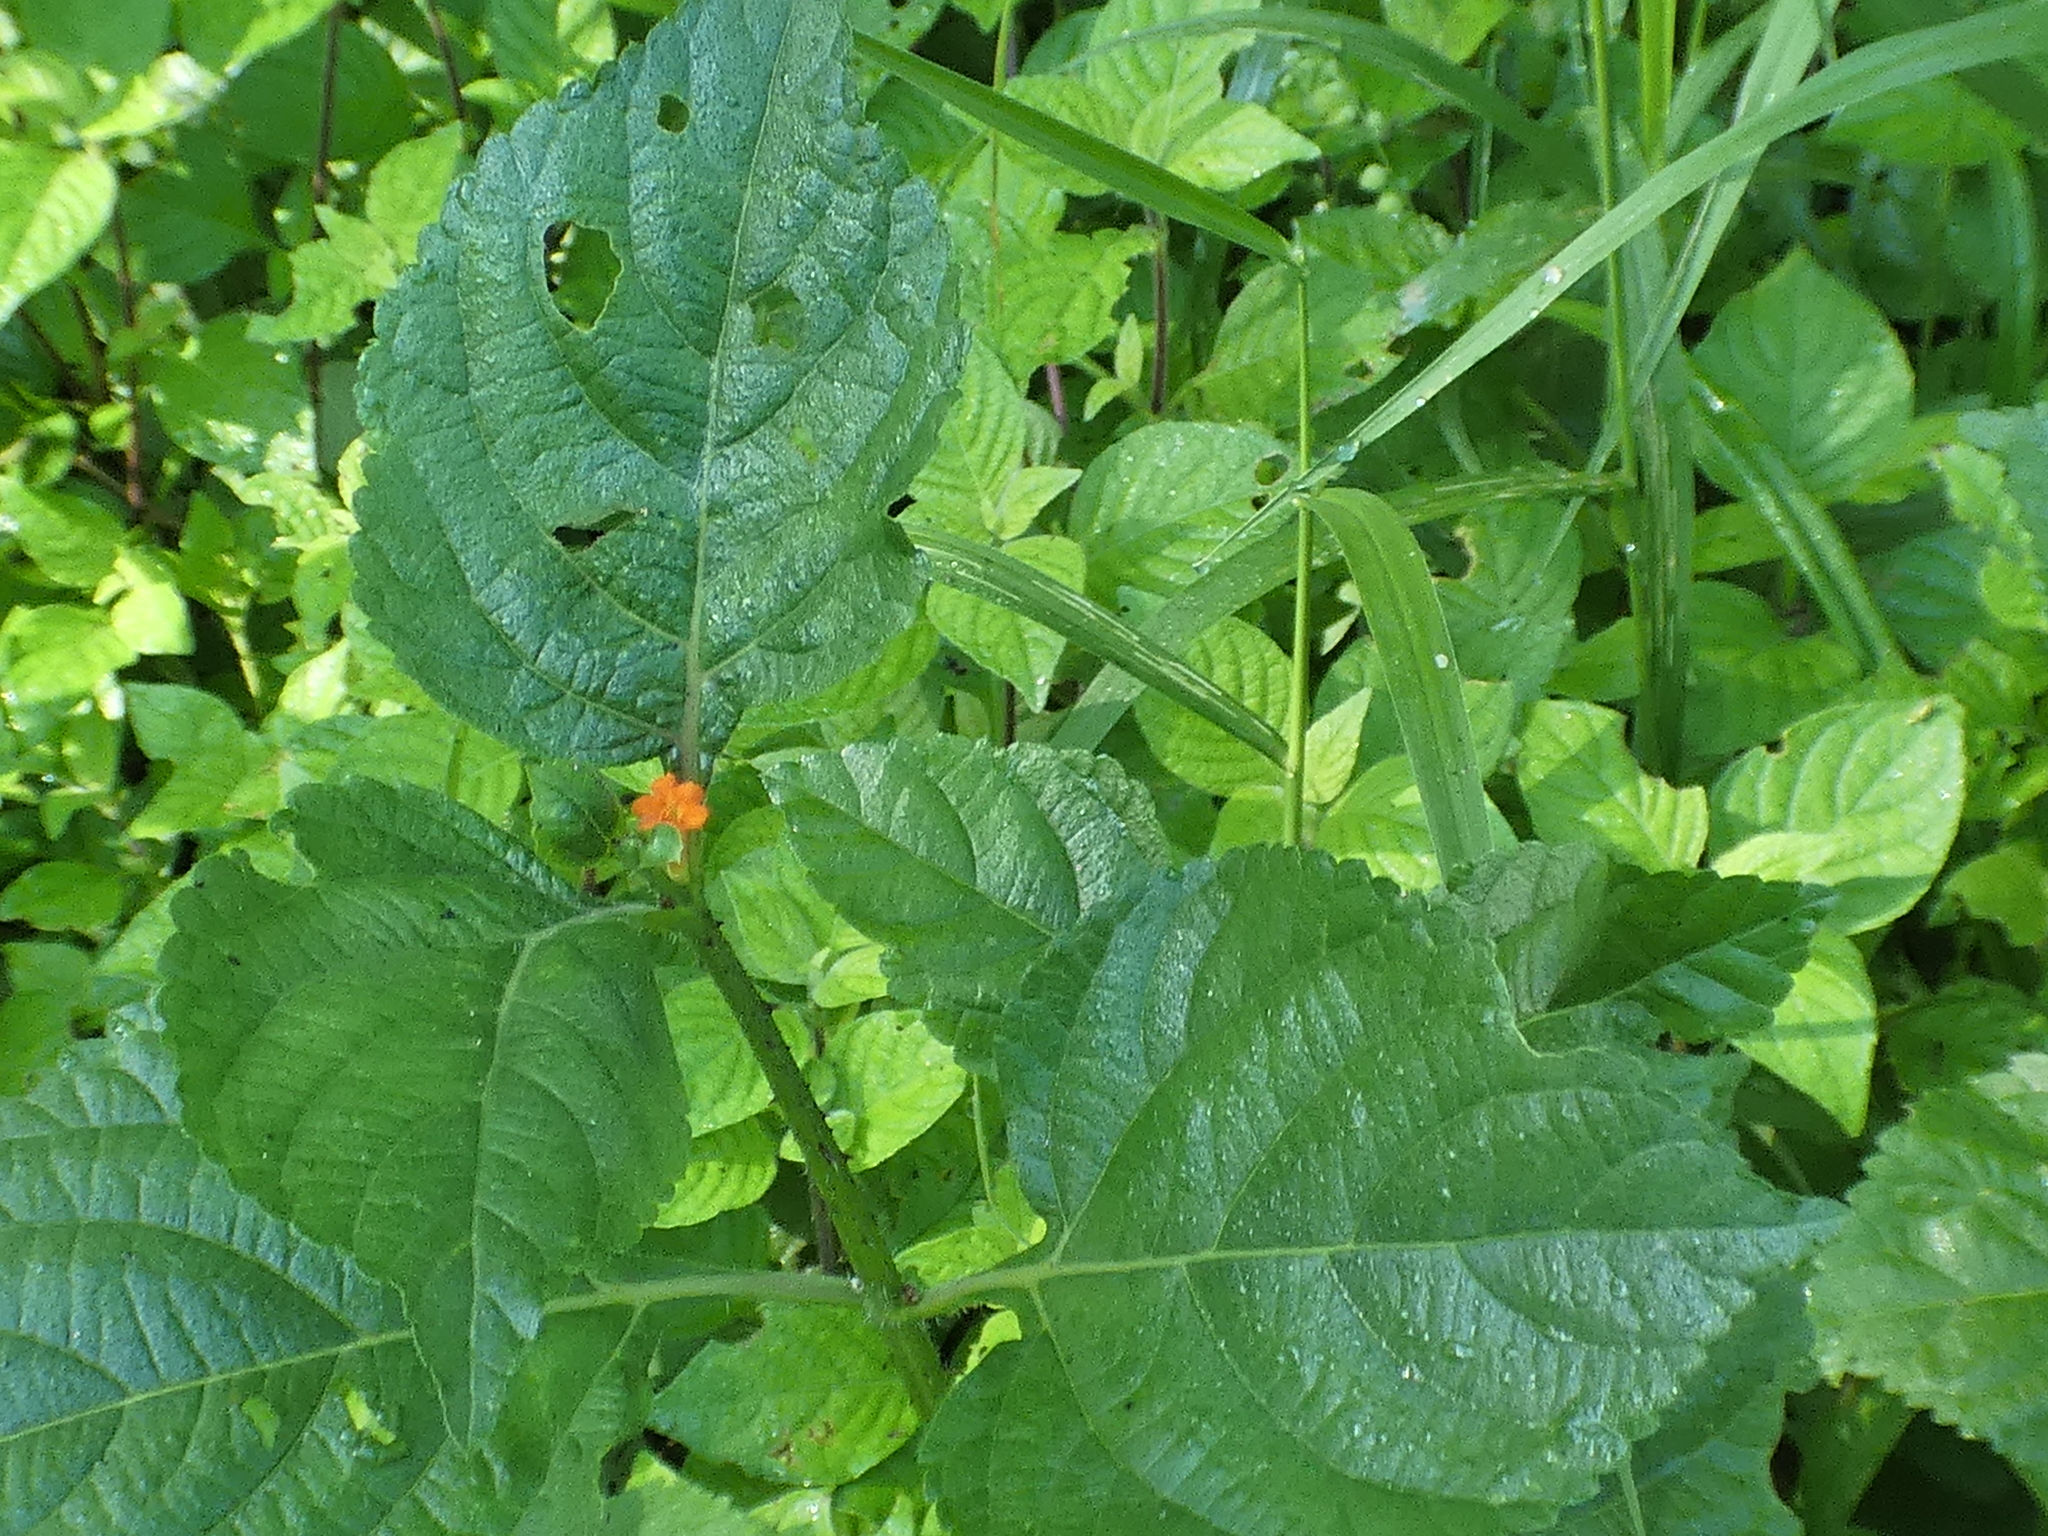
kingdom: Plantae
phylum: Tracheophyta
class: Magnoliopsida
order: Lamiales
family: Verbenaceae
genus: Lantana
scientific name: Lantana camara
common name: Lantana
